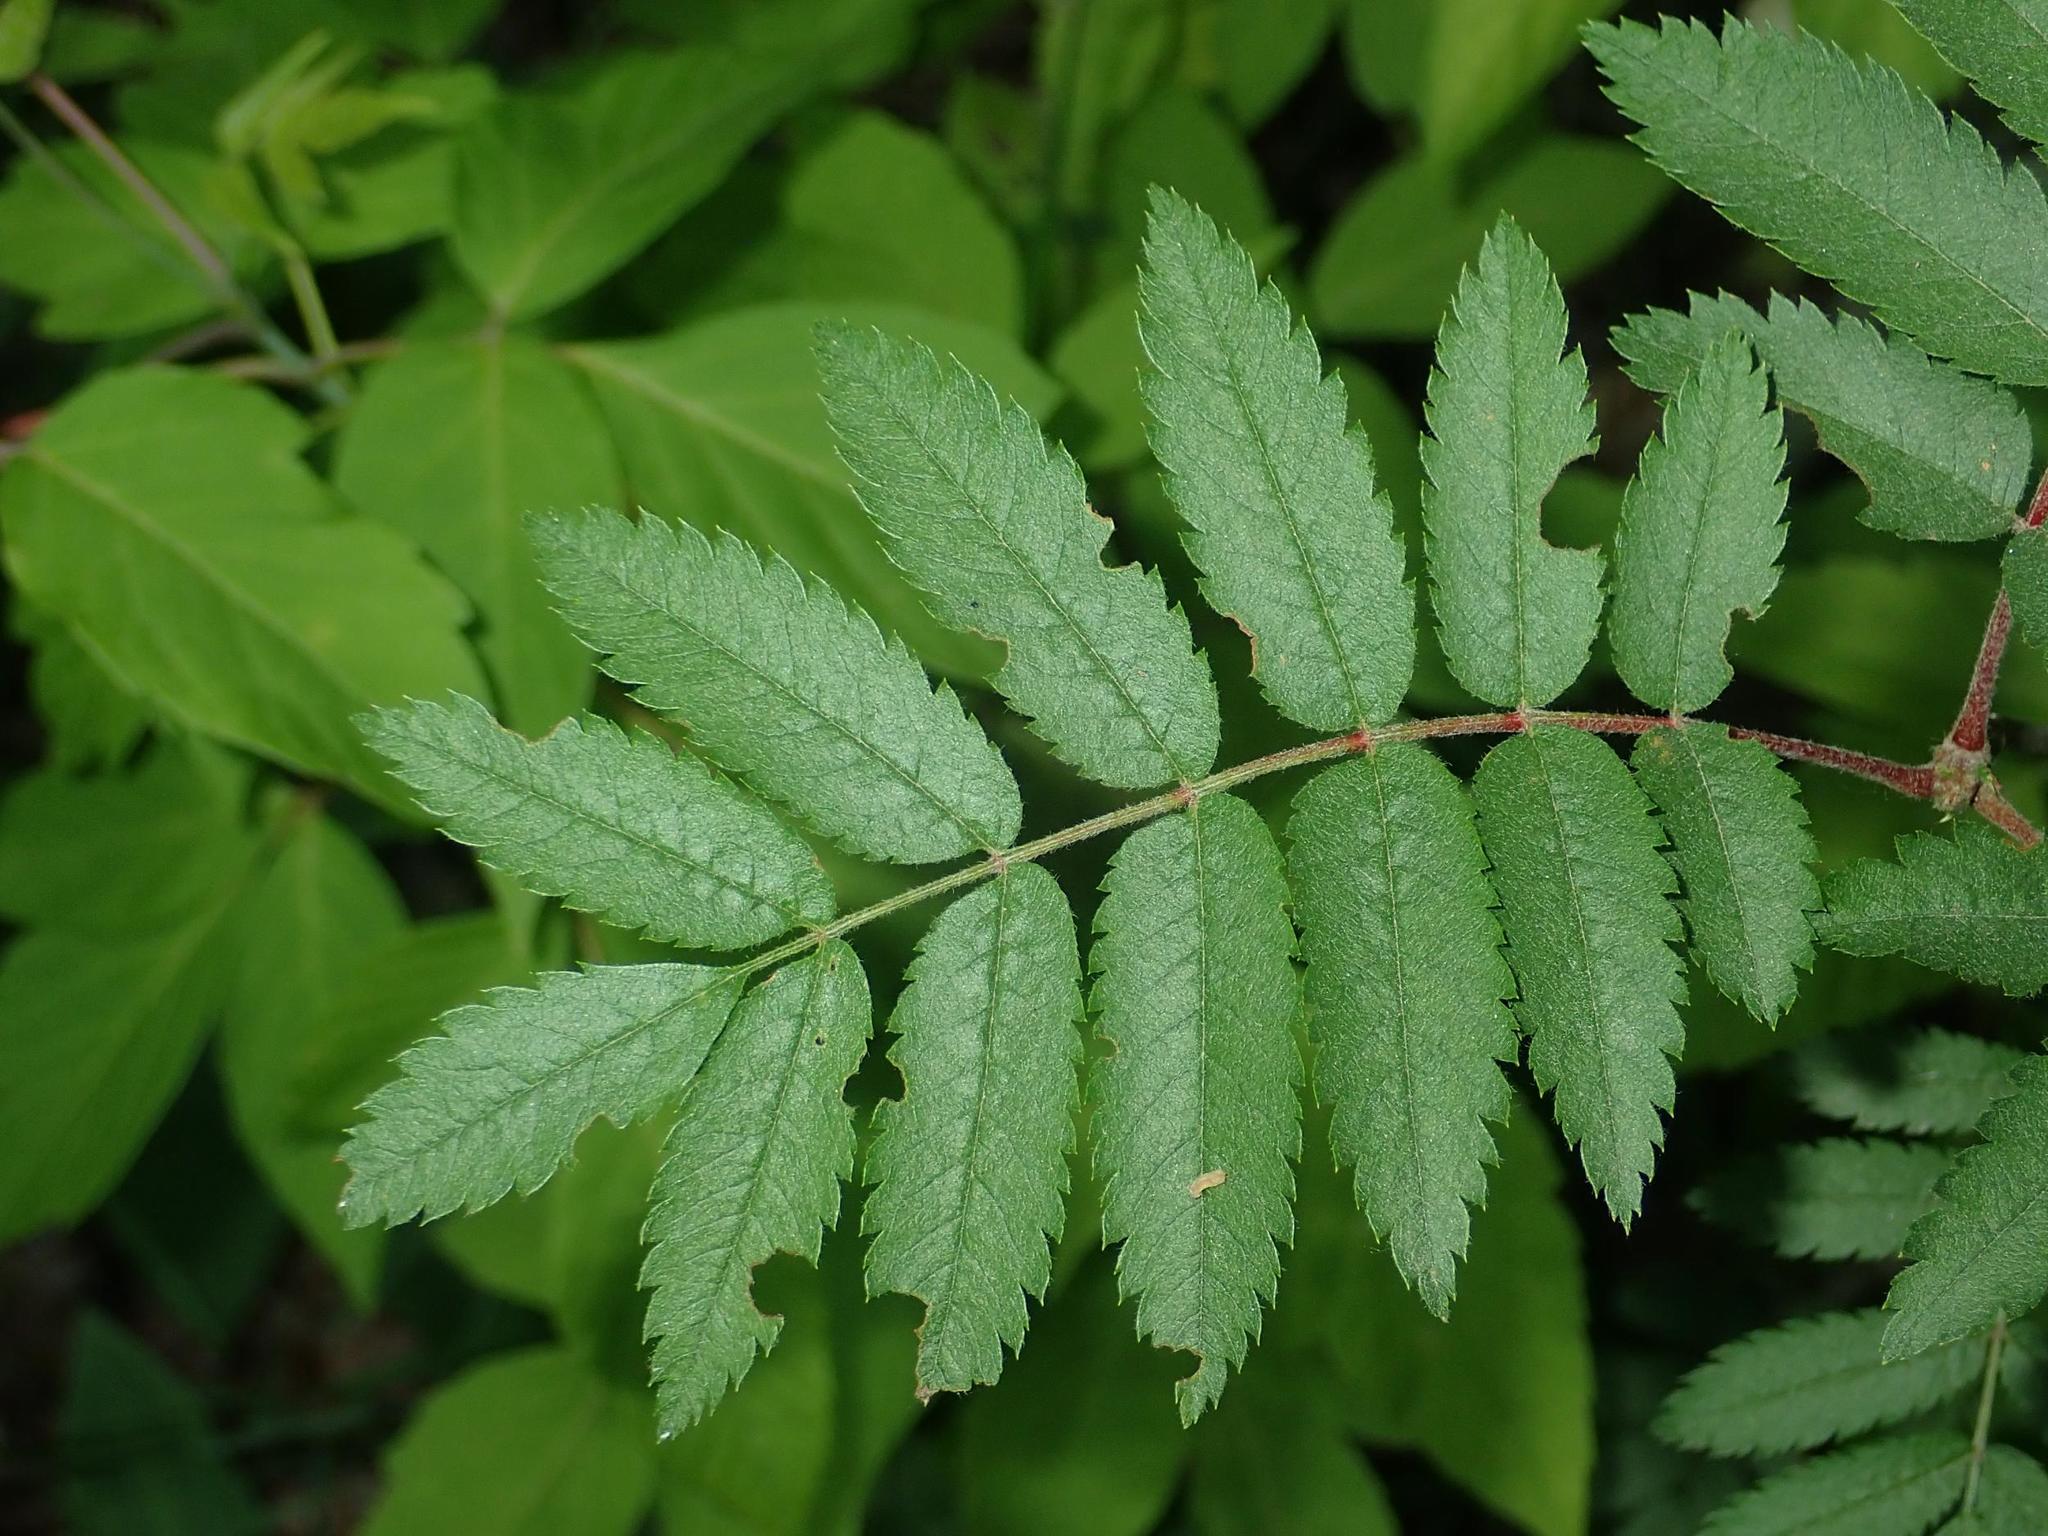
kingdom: Plantae
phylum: Tracheophyta
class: Magnoliopsida
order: Rosales
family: Rosaceae
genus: Sorbus
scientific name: Sorbus aucuparia
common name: Rowan
